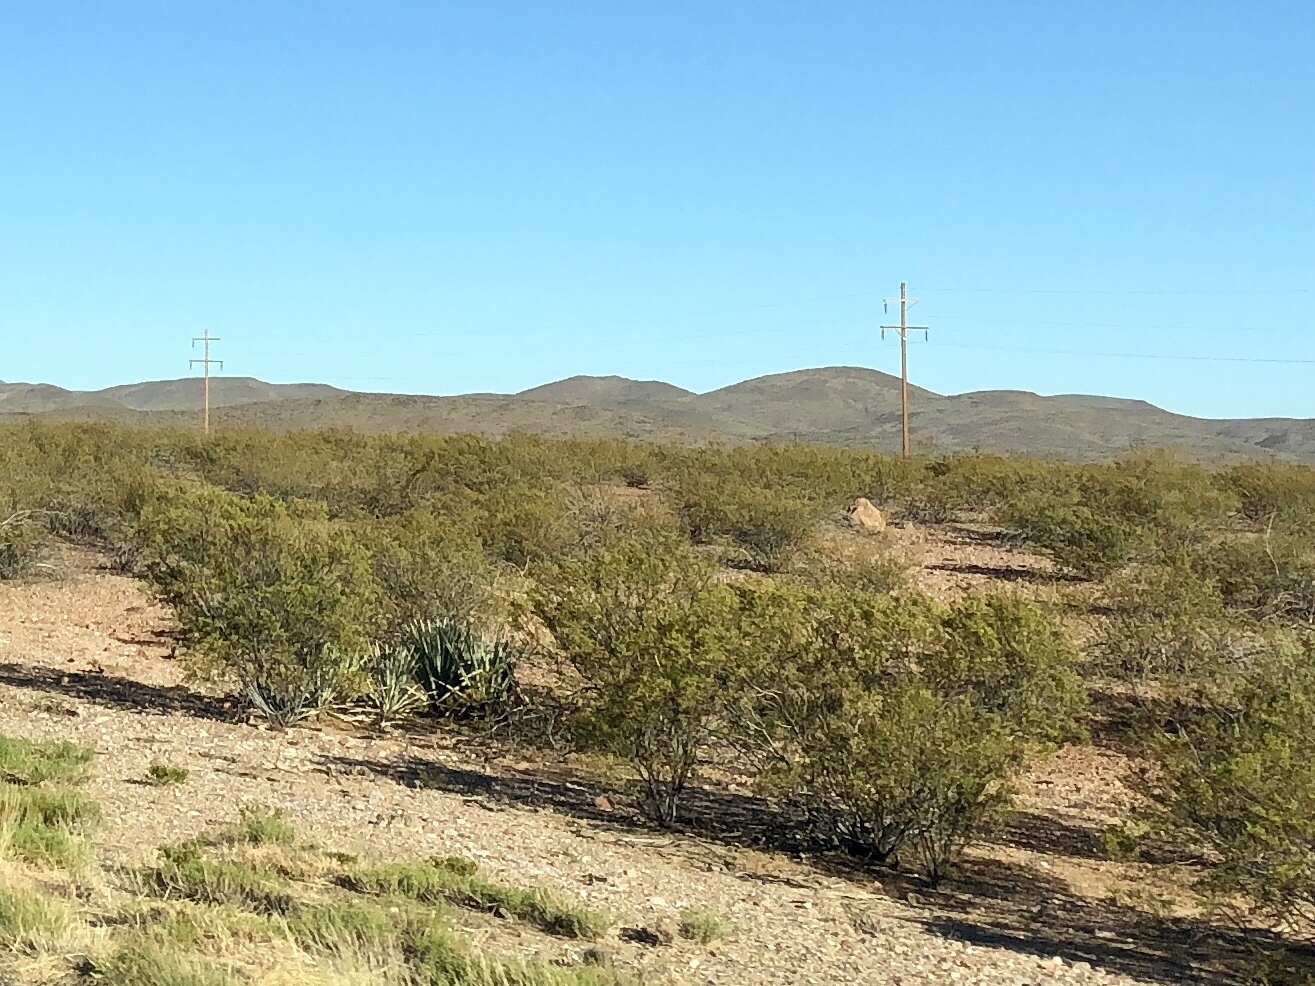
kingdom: Plantae
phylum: Tracheophyta
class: Magnoliopsida
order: Zygophyllales
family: Zygophyllaceae
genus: Larrea
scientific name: Larrea tridentata
